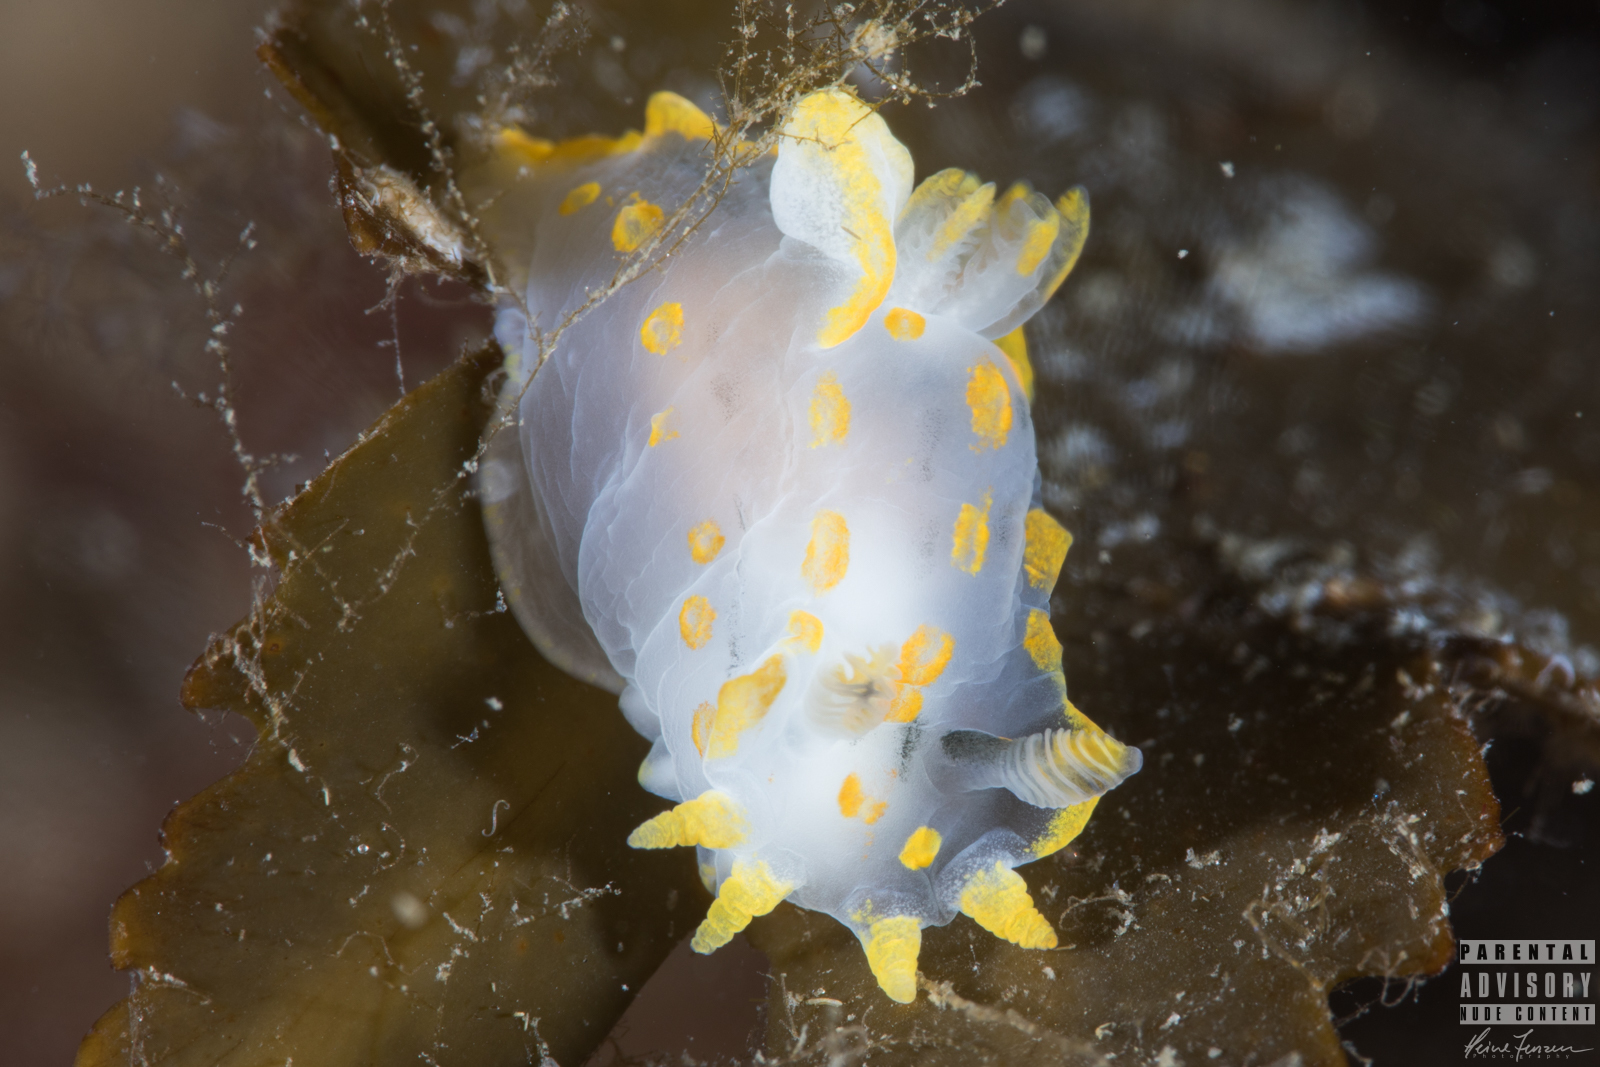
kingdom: Animalia
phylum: Mollusca
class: Gastropoda
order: Nudibranchia
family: Polyceridae
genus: Polycera
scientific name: Polycera quadrilineata
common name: Four-striped polycera
